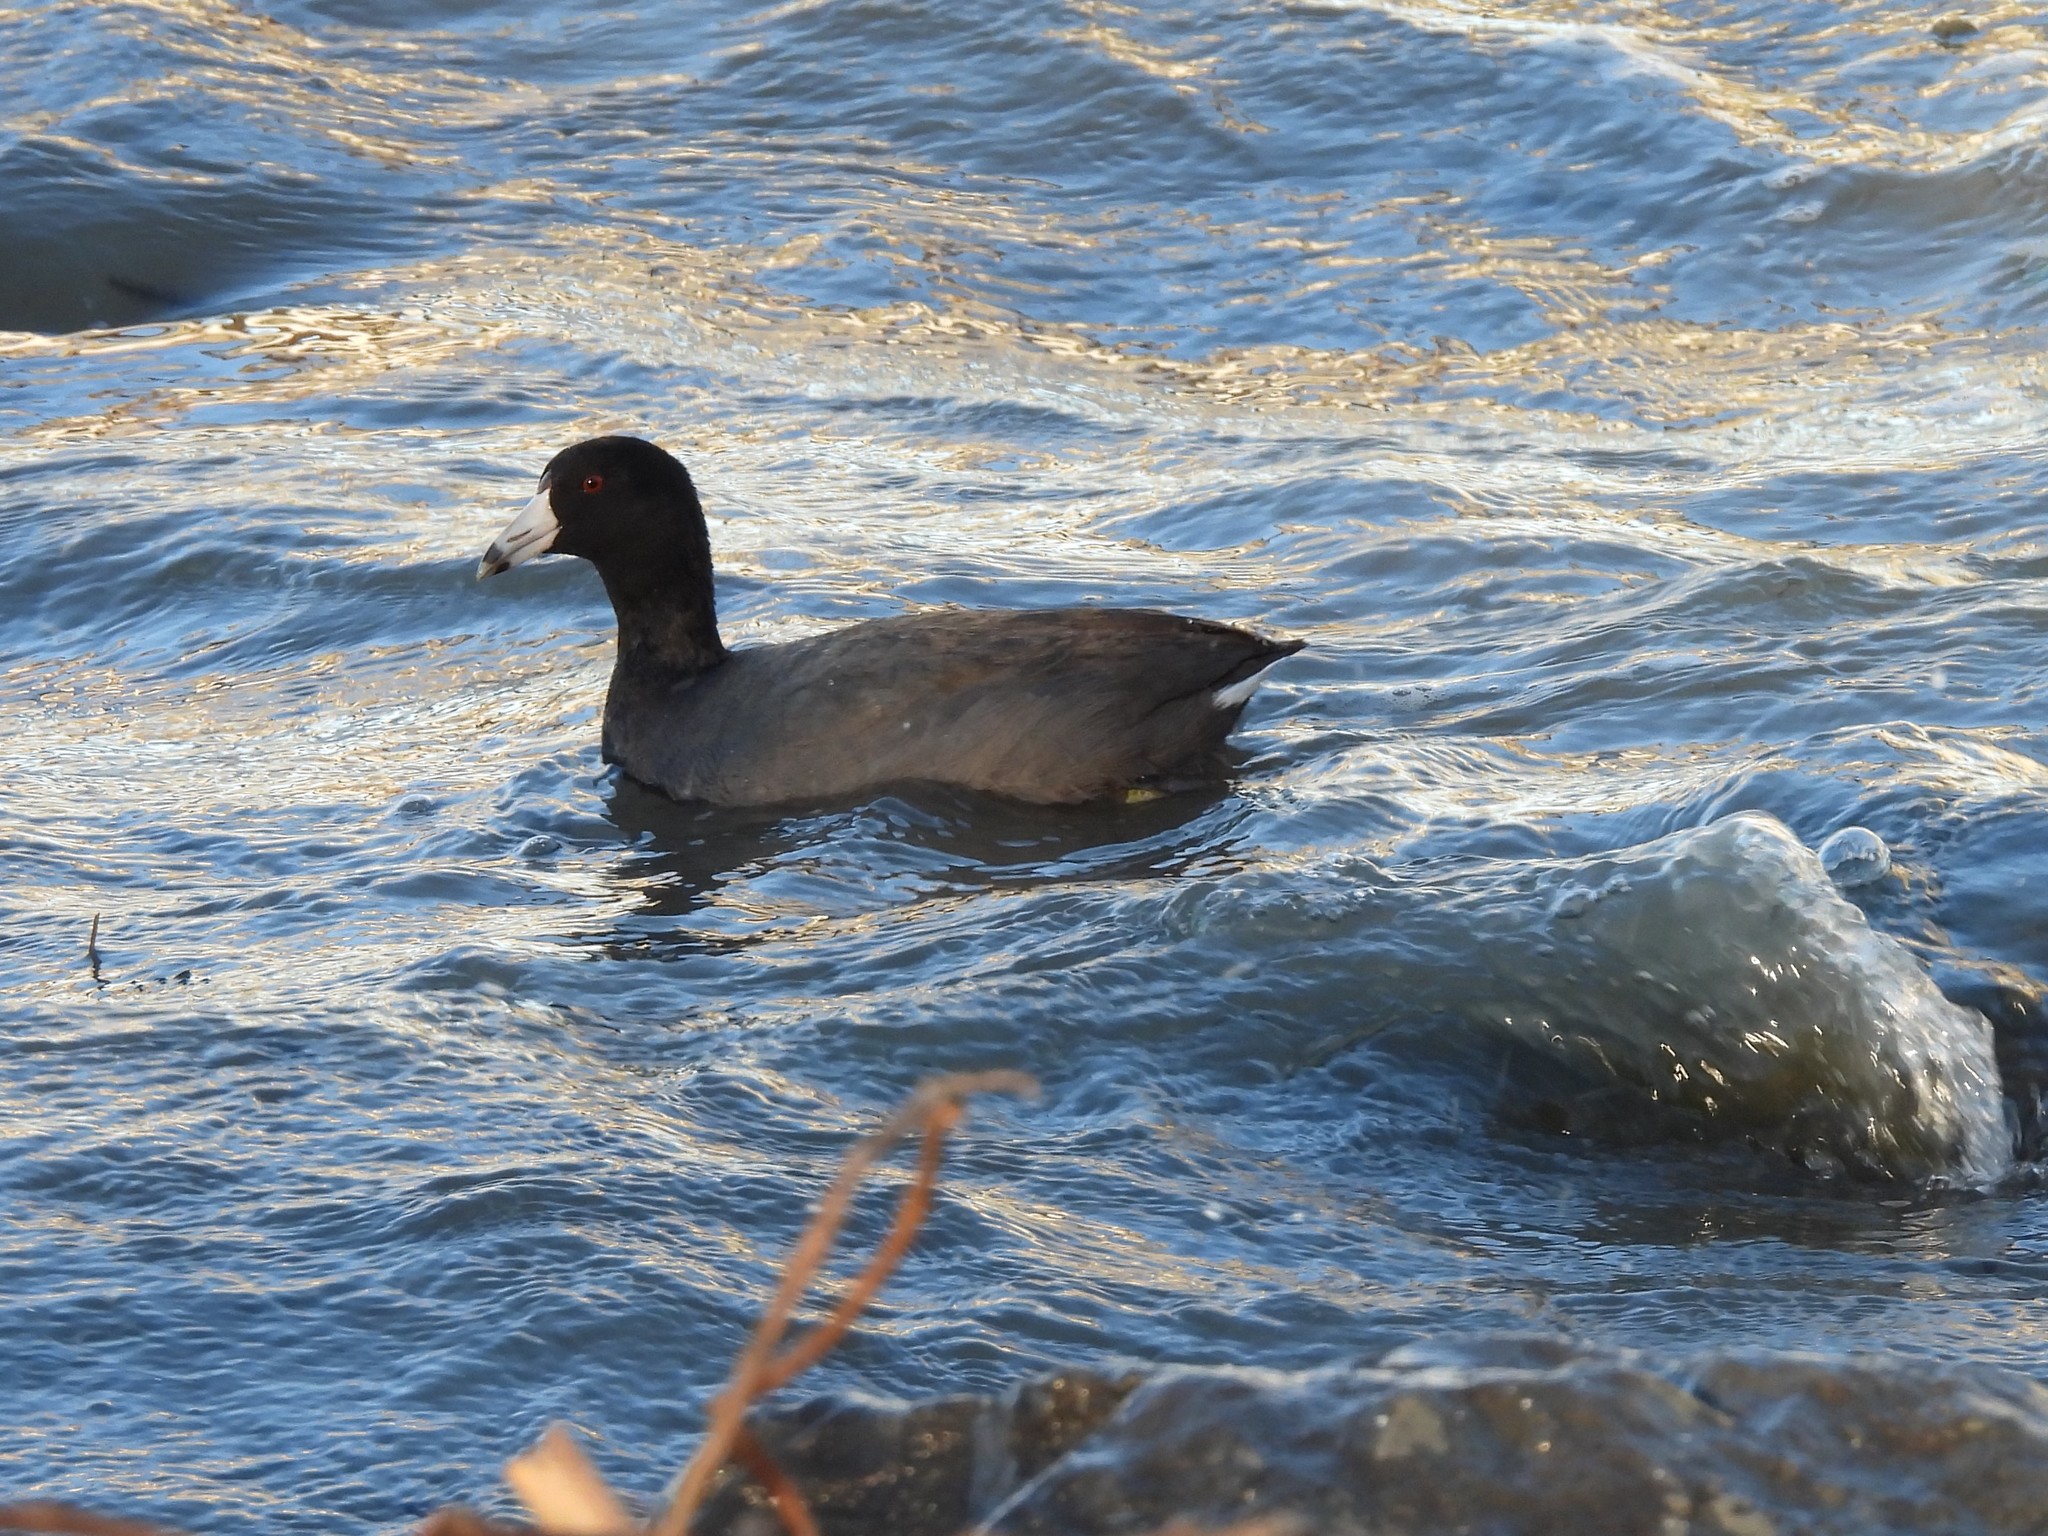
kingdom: Animalia
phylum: Chordata
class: Aves
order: Gruiformes
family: Rallidae
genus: Fulica
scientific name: Fulica americana
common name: American coot
